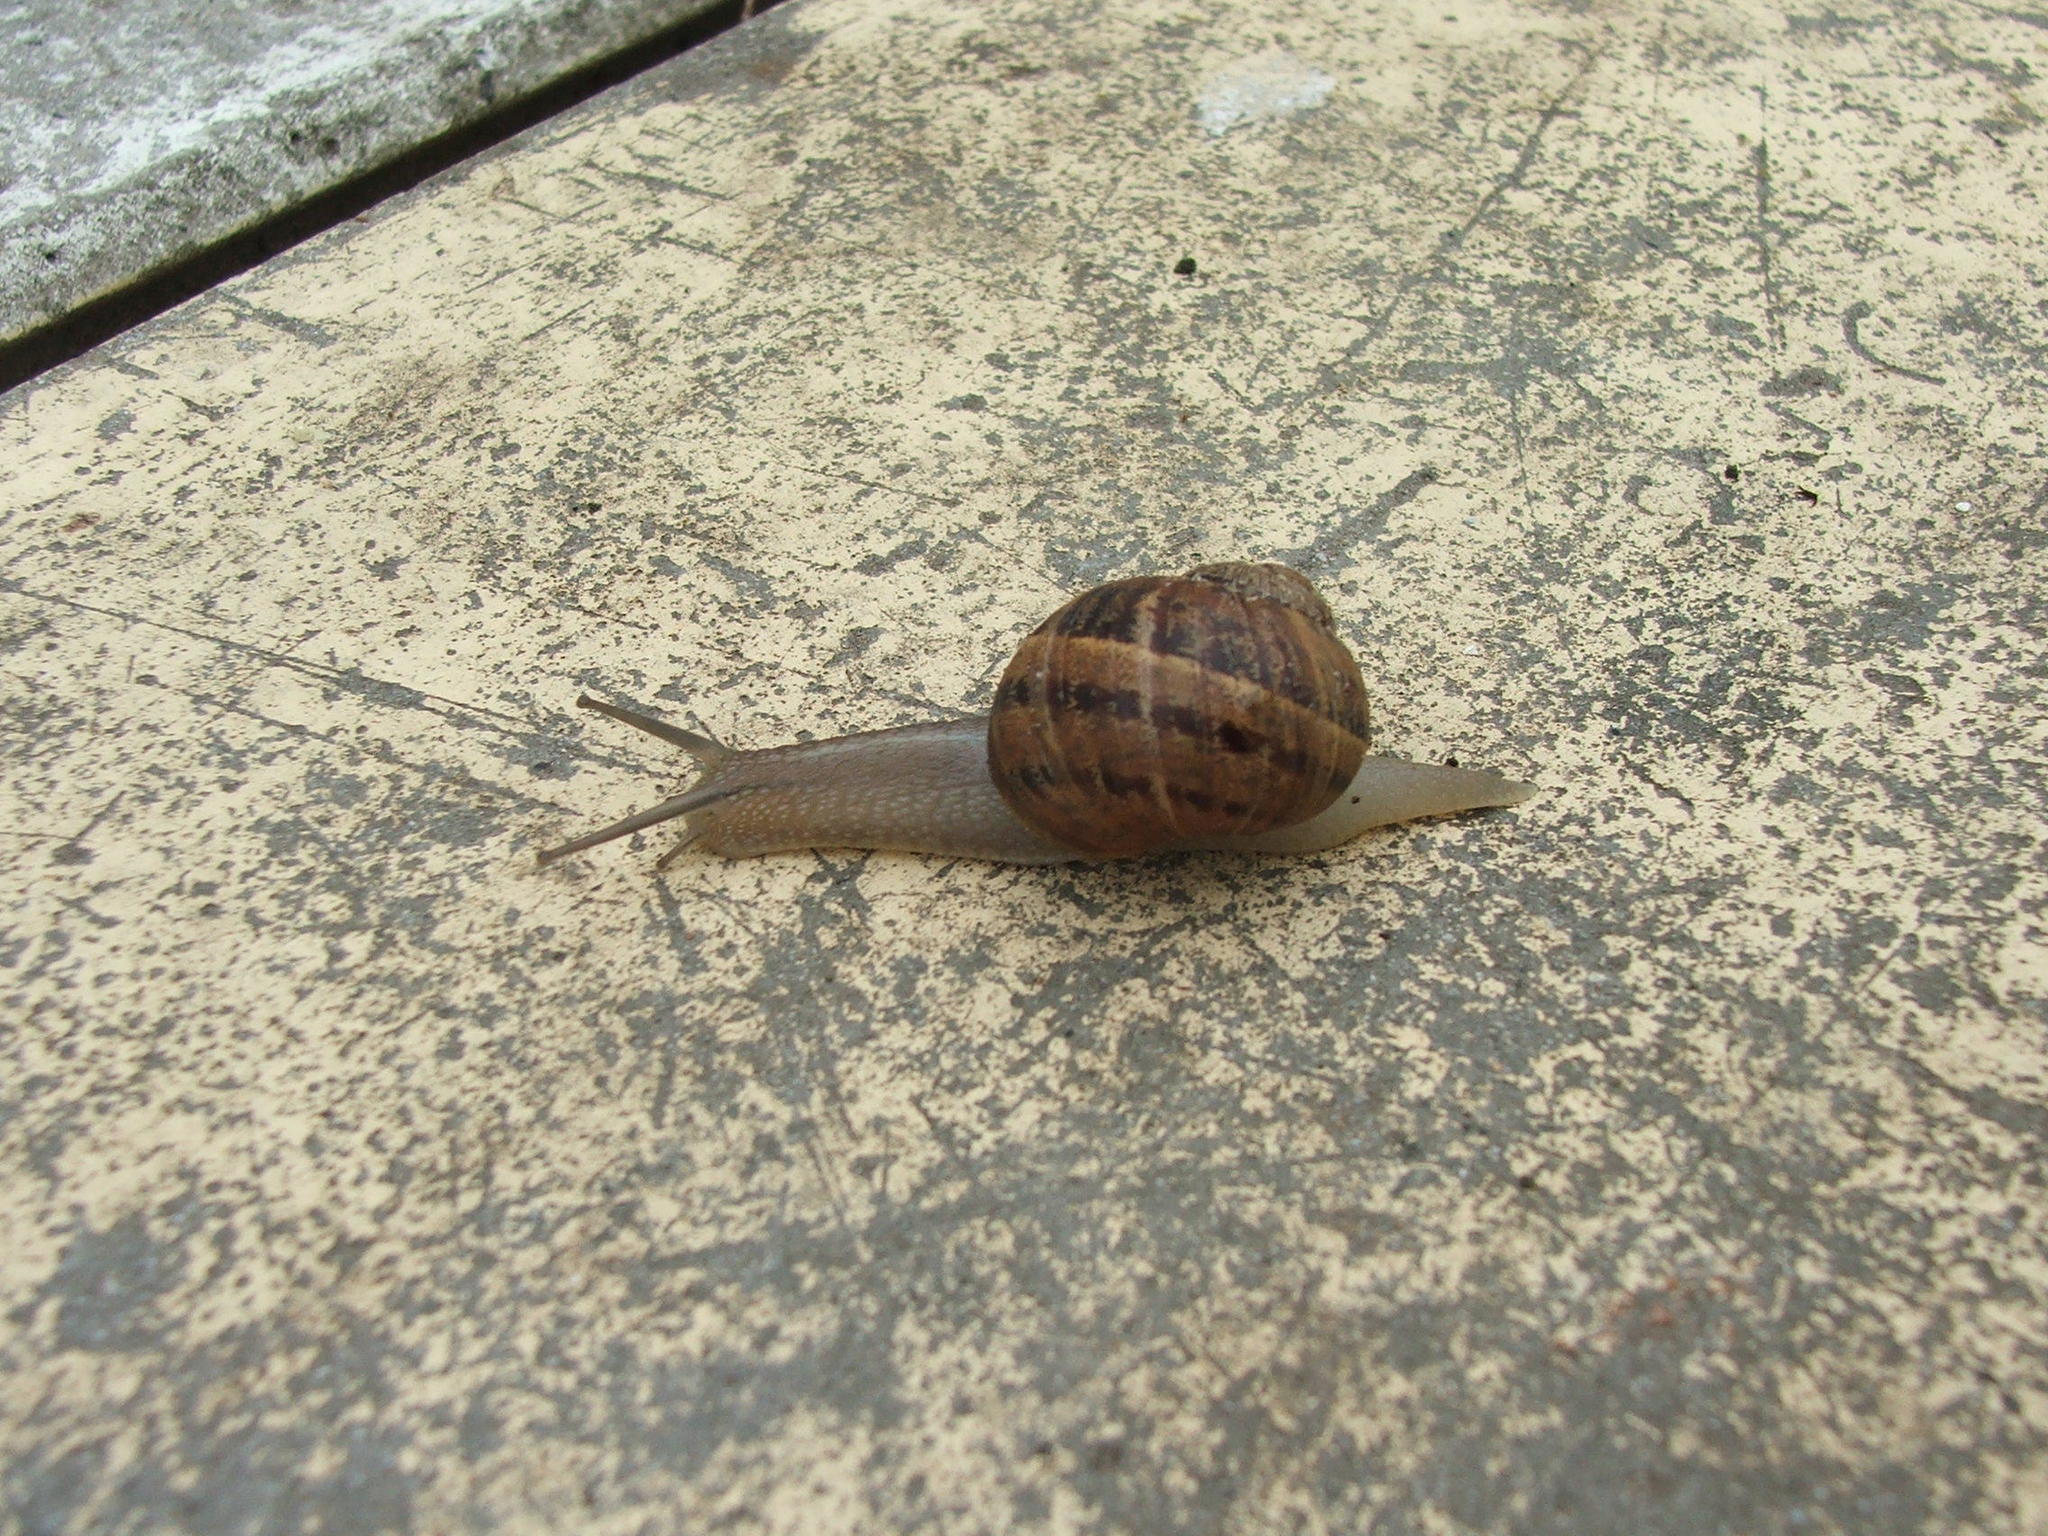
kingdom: Animalia
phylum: Mollusca
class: Gastropoda
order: Stylommatophora
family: Helicidae
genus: Cornu
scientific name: Cornu aspersum
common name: Brown garden snail
